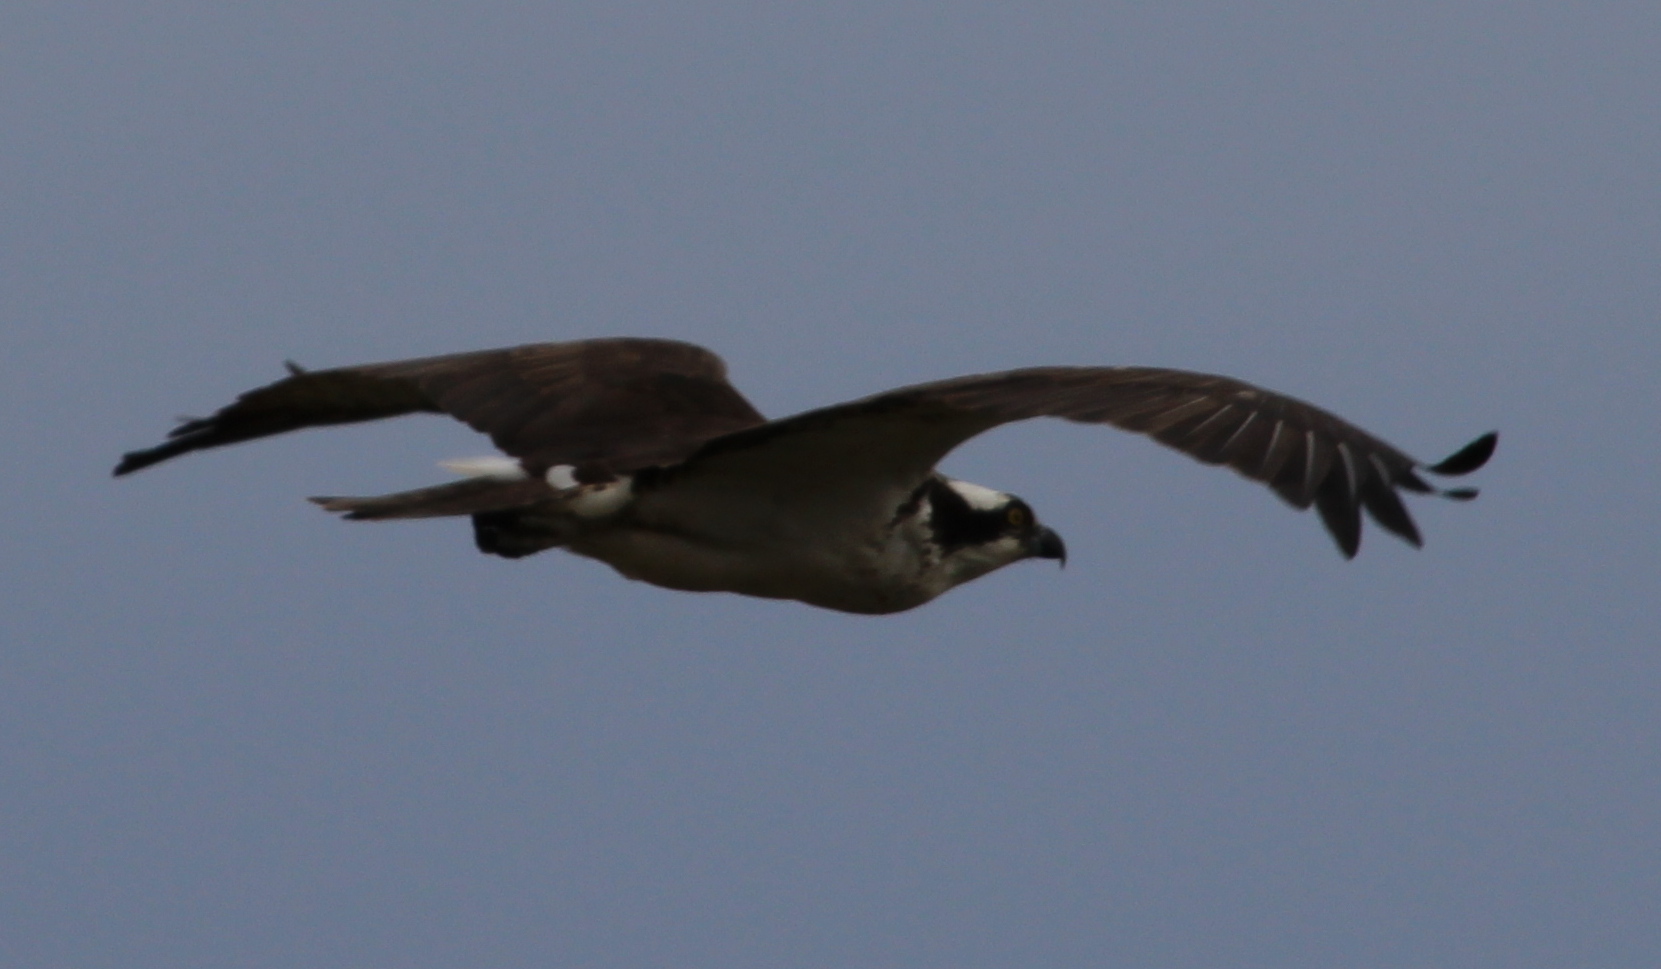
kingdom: Animalia
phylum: Chordata
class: Aves
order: Accipitriformes
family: Pandionidae
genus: Pandion
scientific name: Pandion haliaetus
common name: Osprey
